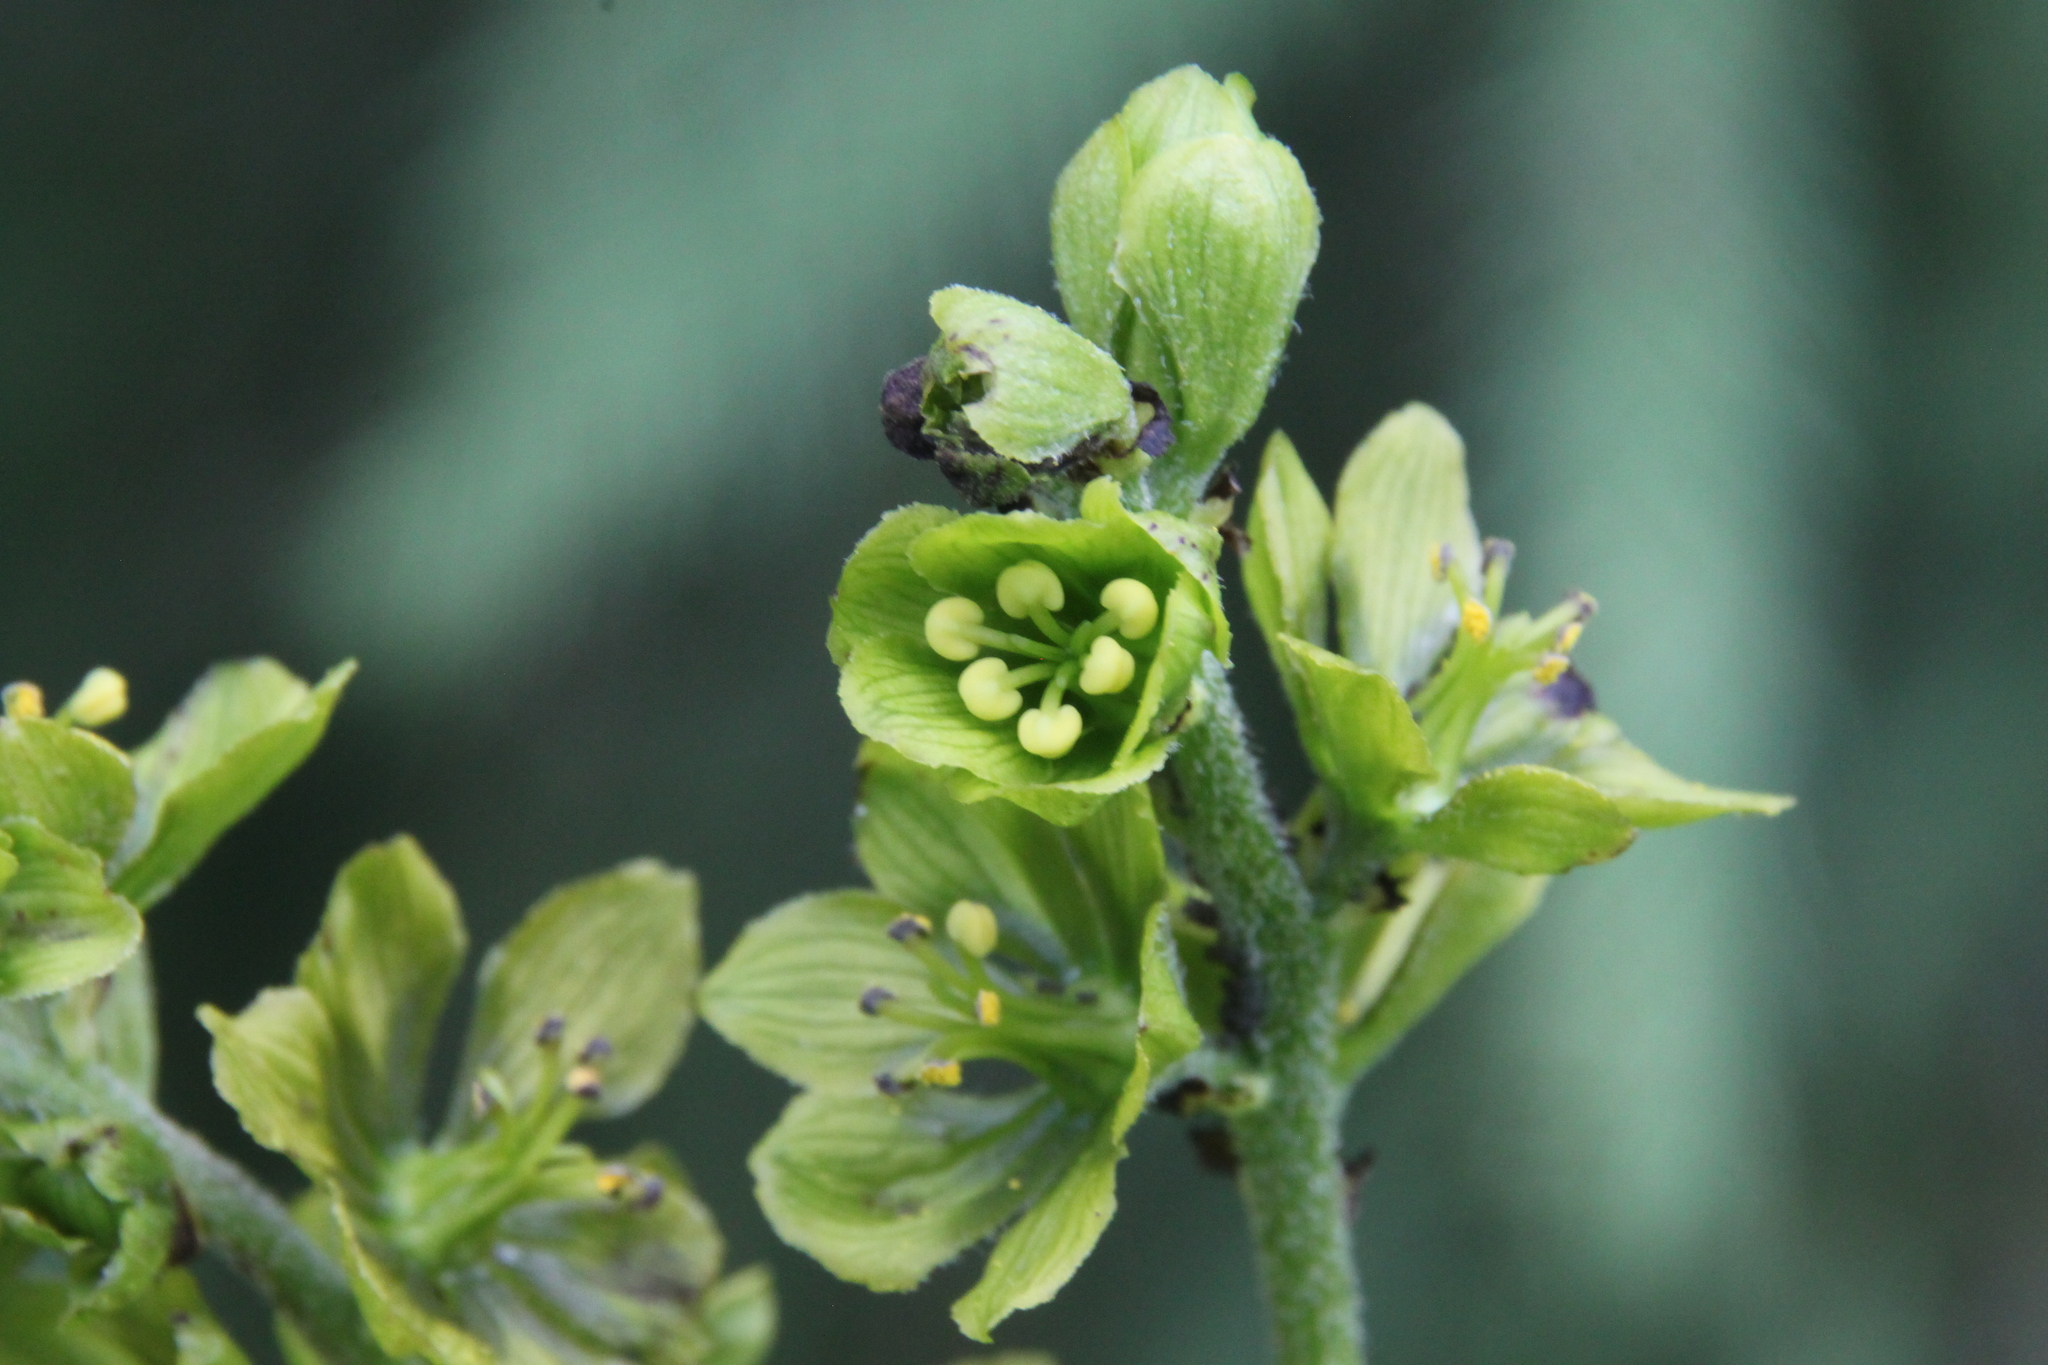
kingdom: Plantae
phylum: Tracheophyta
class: Liliopsida
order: Liliales
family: Melanthiaceae
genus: Veratrum
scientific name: Veratrum lobelianum
